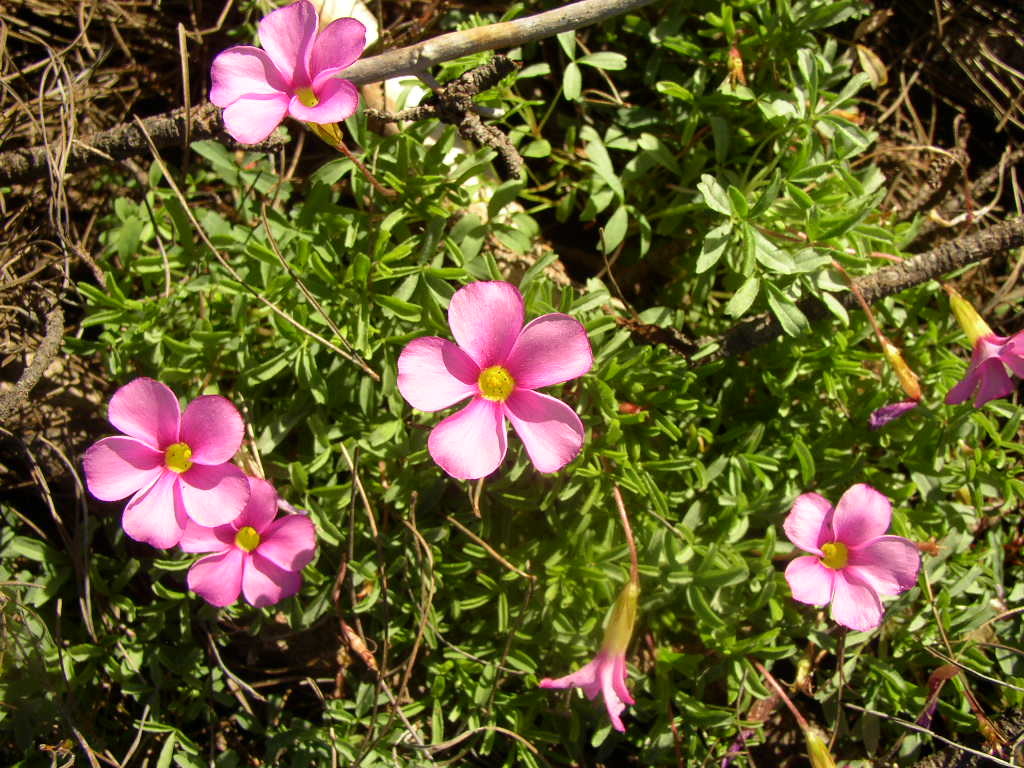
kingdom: Plantae
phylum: Tracheophyta
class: Magnoliopsida
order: Oxalidales
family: Oxalidaceae
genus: Oxalis
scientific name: Oxalis glabra
